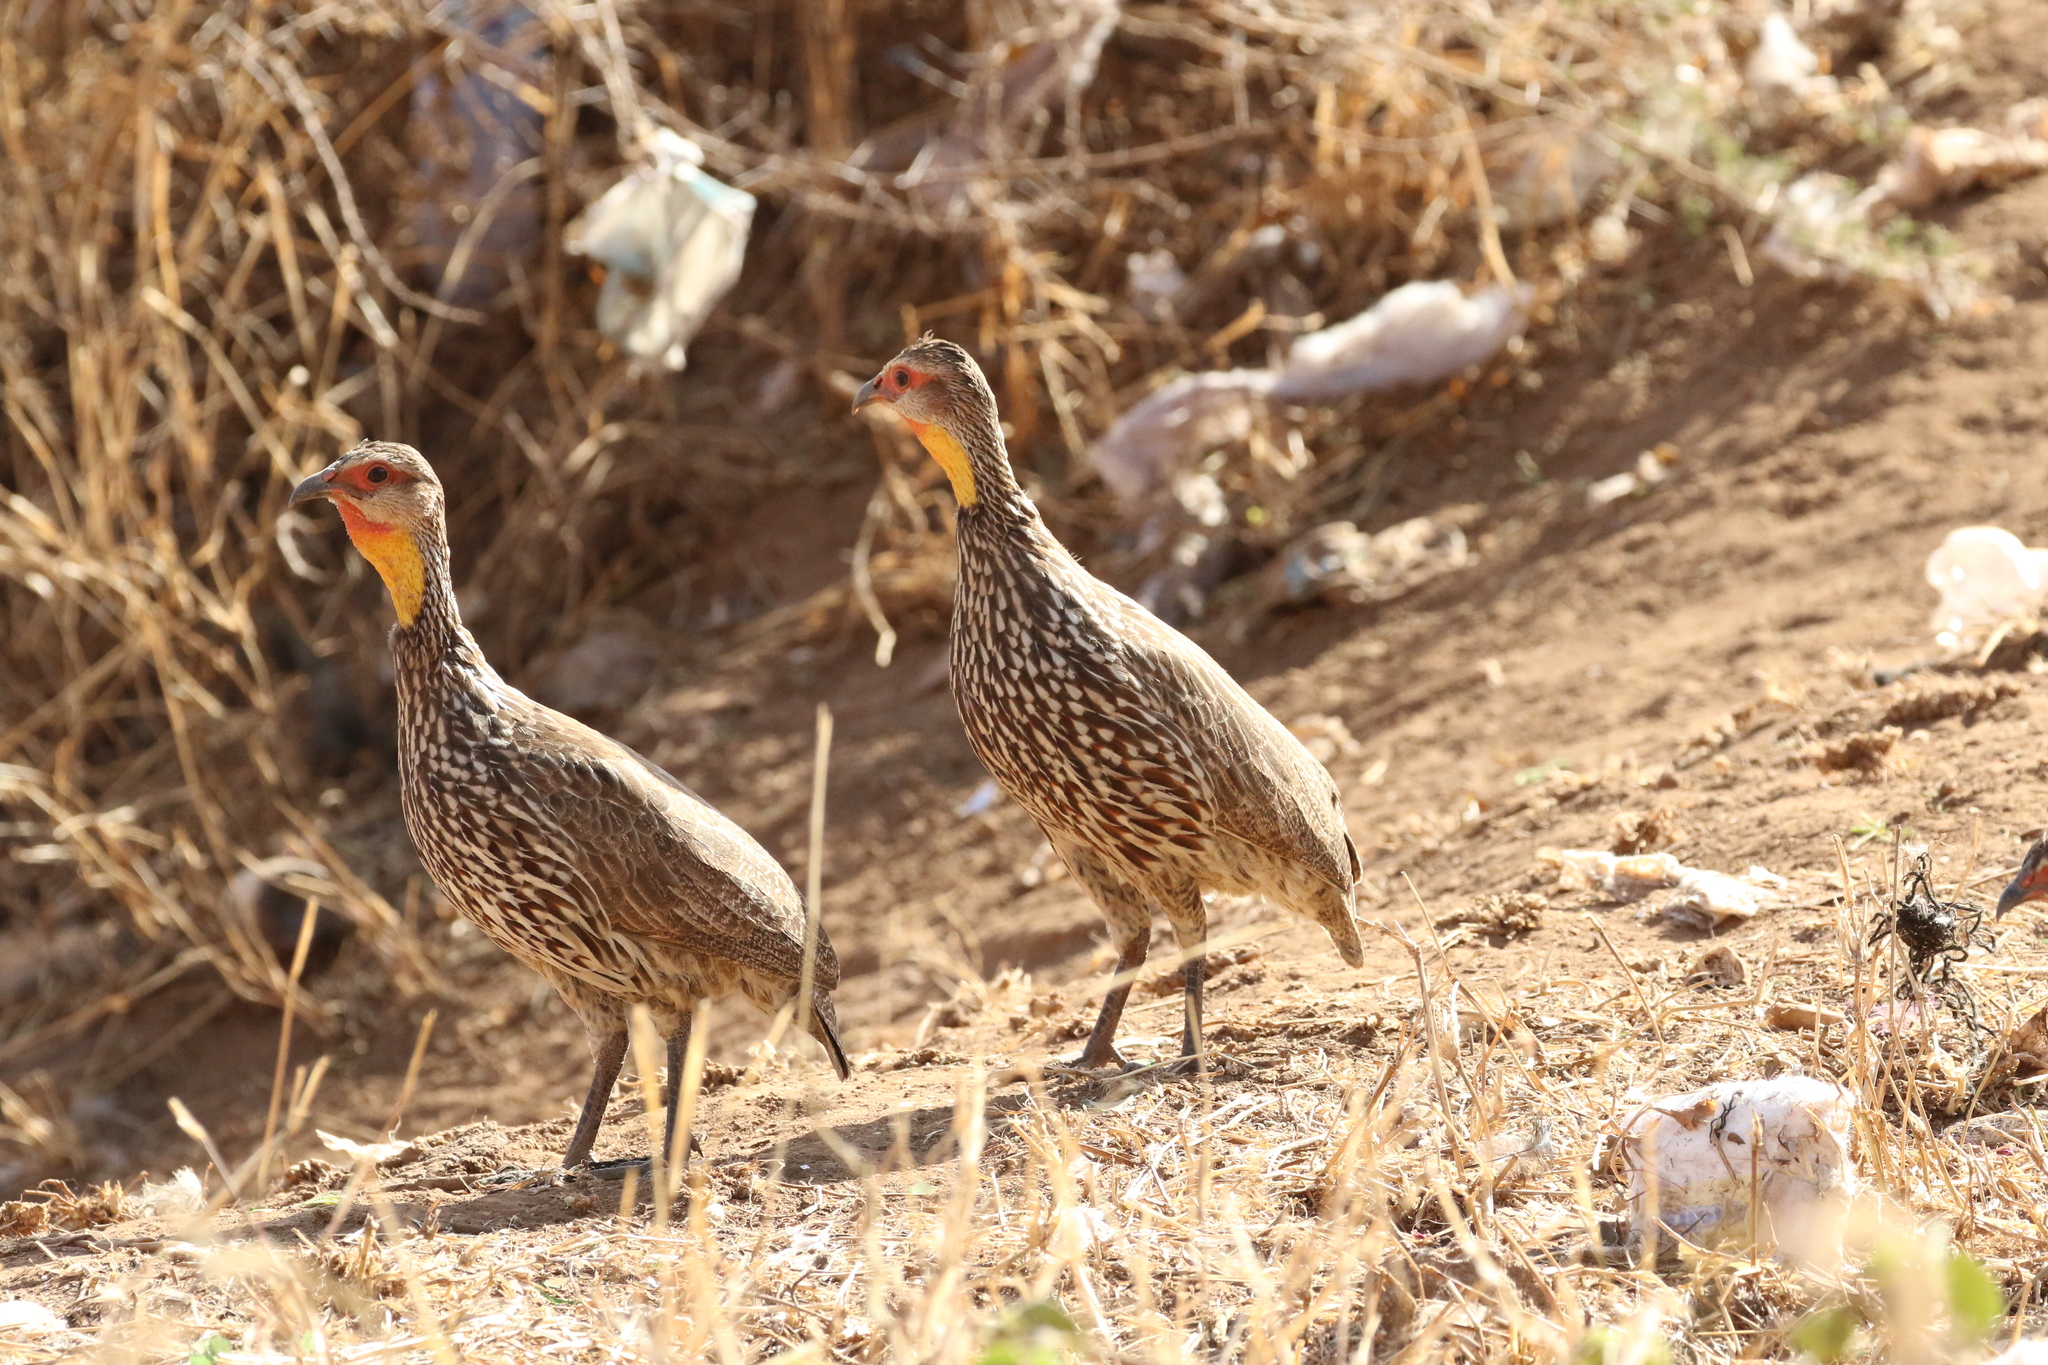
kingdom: Animalia
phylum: Chordata
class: Aves
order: Galliformes
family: Phasianidae
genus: Pternistis
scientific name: Pternistis leucoscepus
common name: Yellow-necked spurfowl
